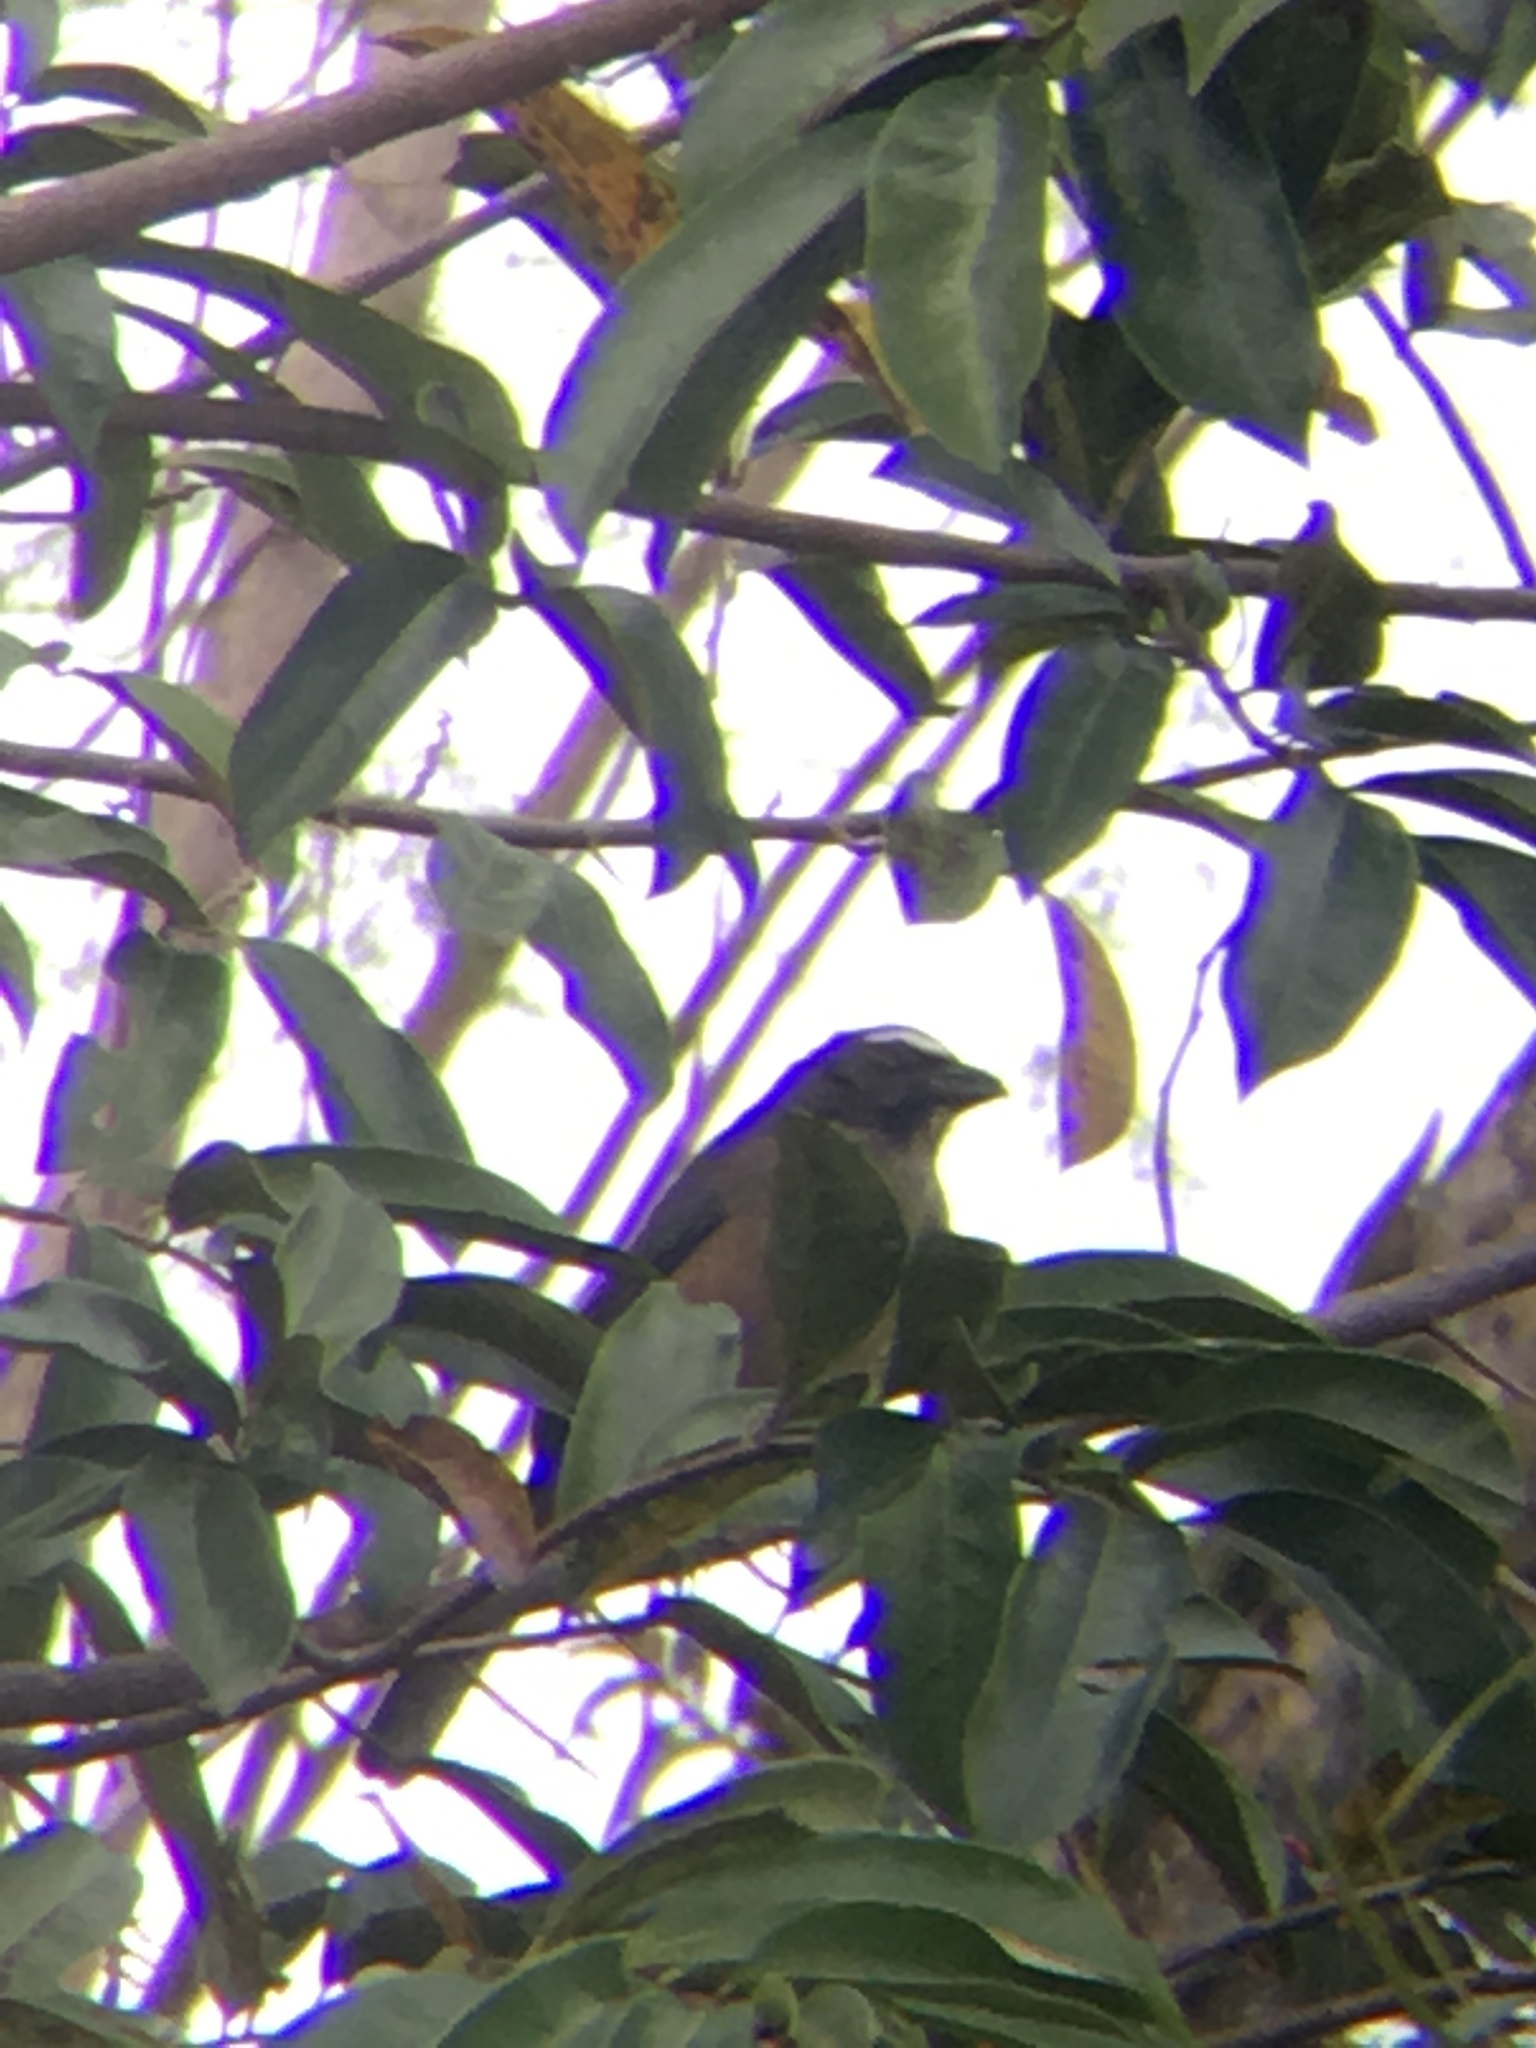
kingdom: Animalia
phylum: Chordata
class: Aves
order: Passeriformes
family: Thraupidae
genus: Saltator
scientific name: Saltator grandis
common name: Cinnamon-bellied saltator
